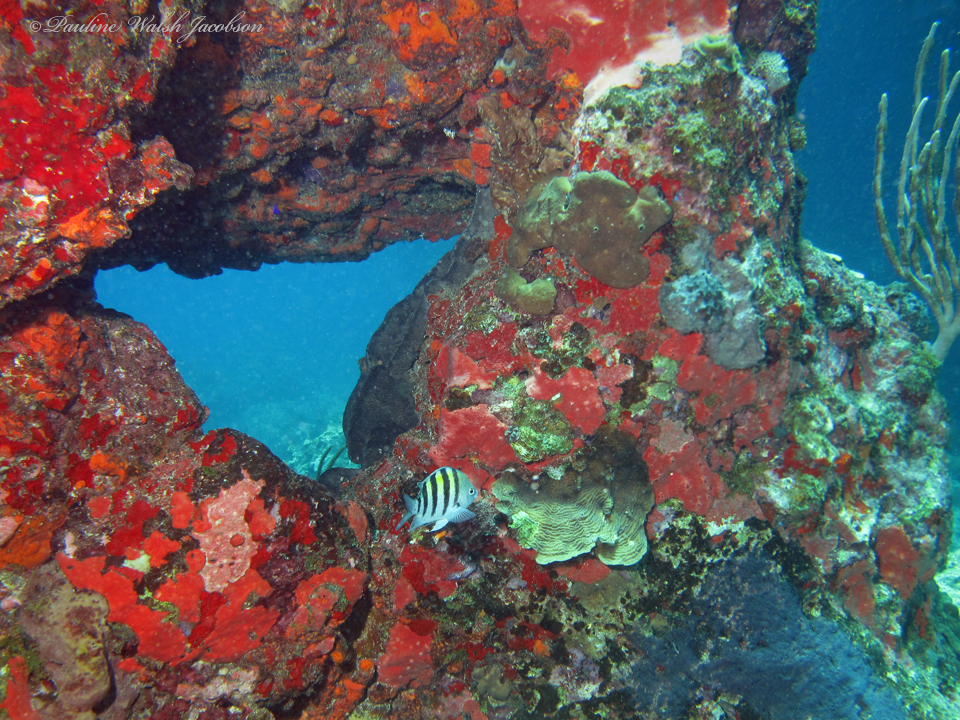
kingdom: Animalia
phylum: Chordata
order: Perciformes
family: Pomacentridae
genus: Abudefduf
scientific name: Abudefduf saxatilis
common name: Sergeant major
